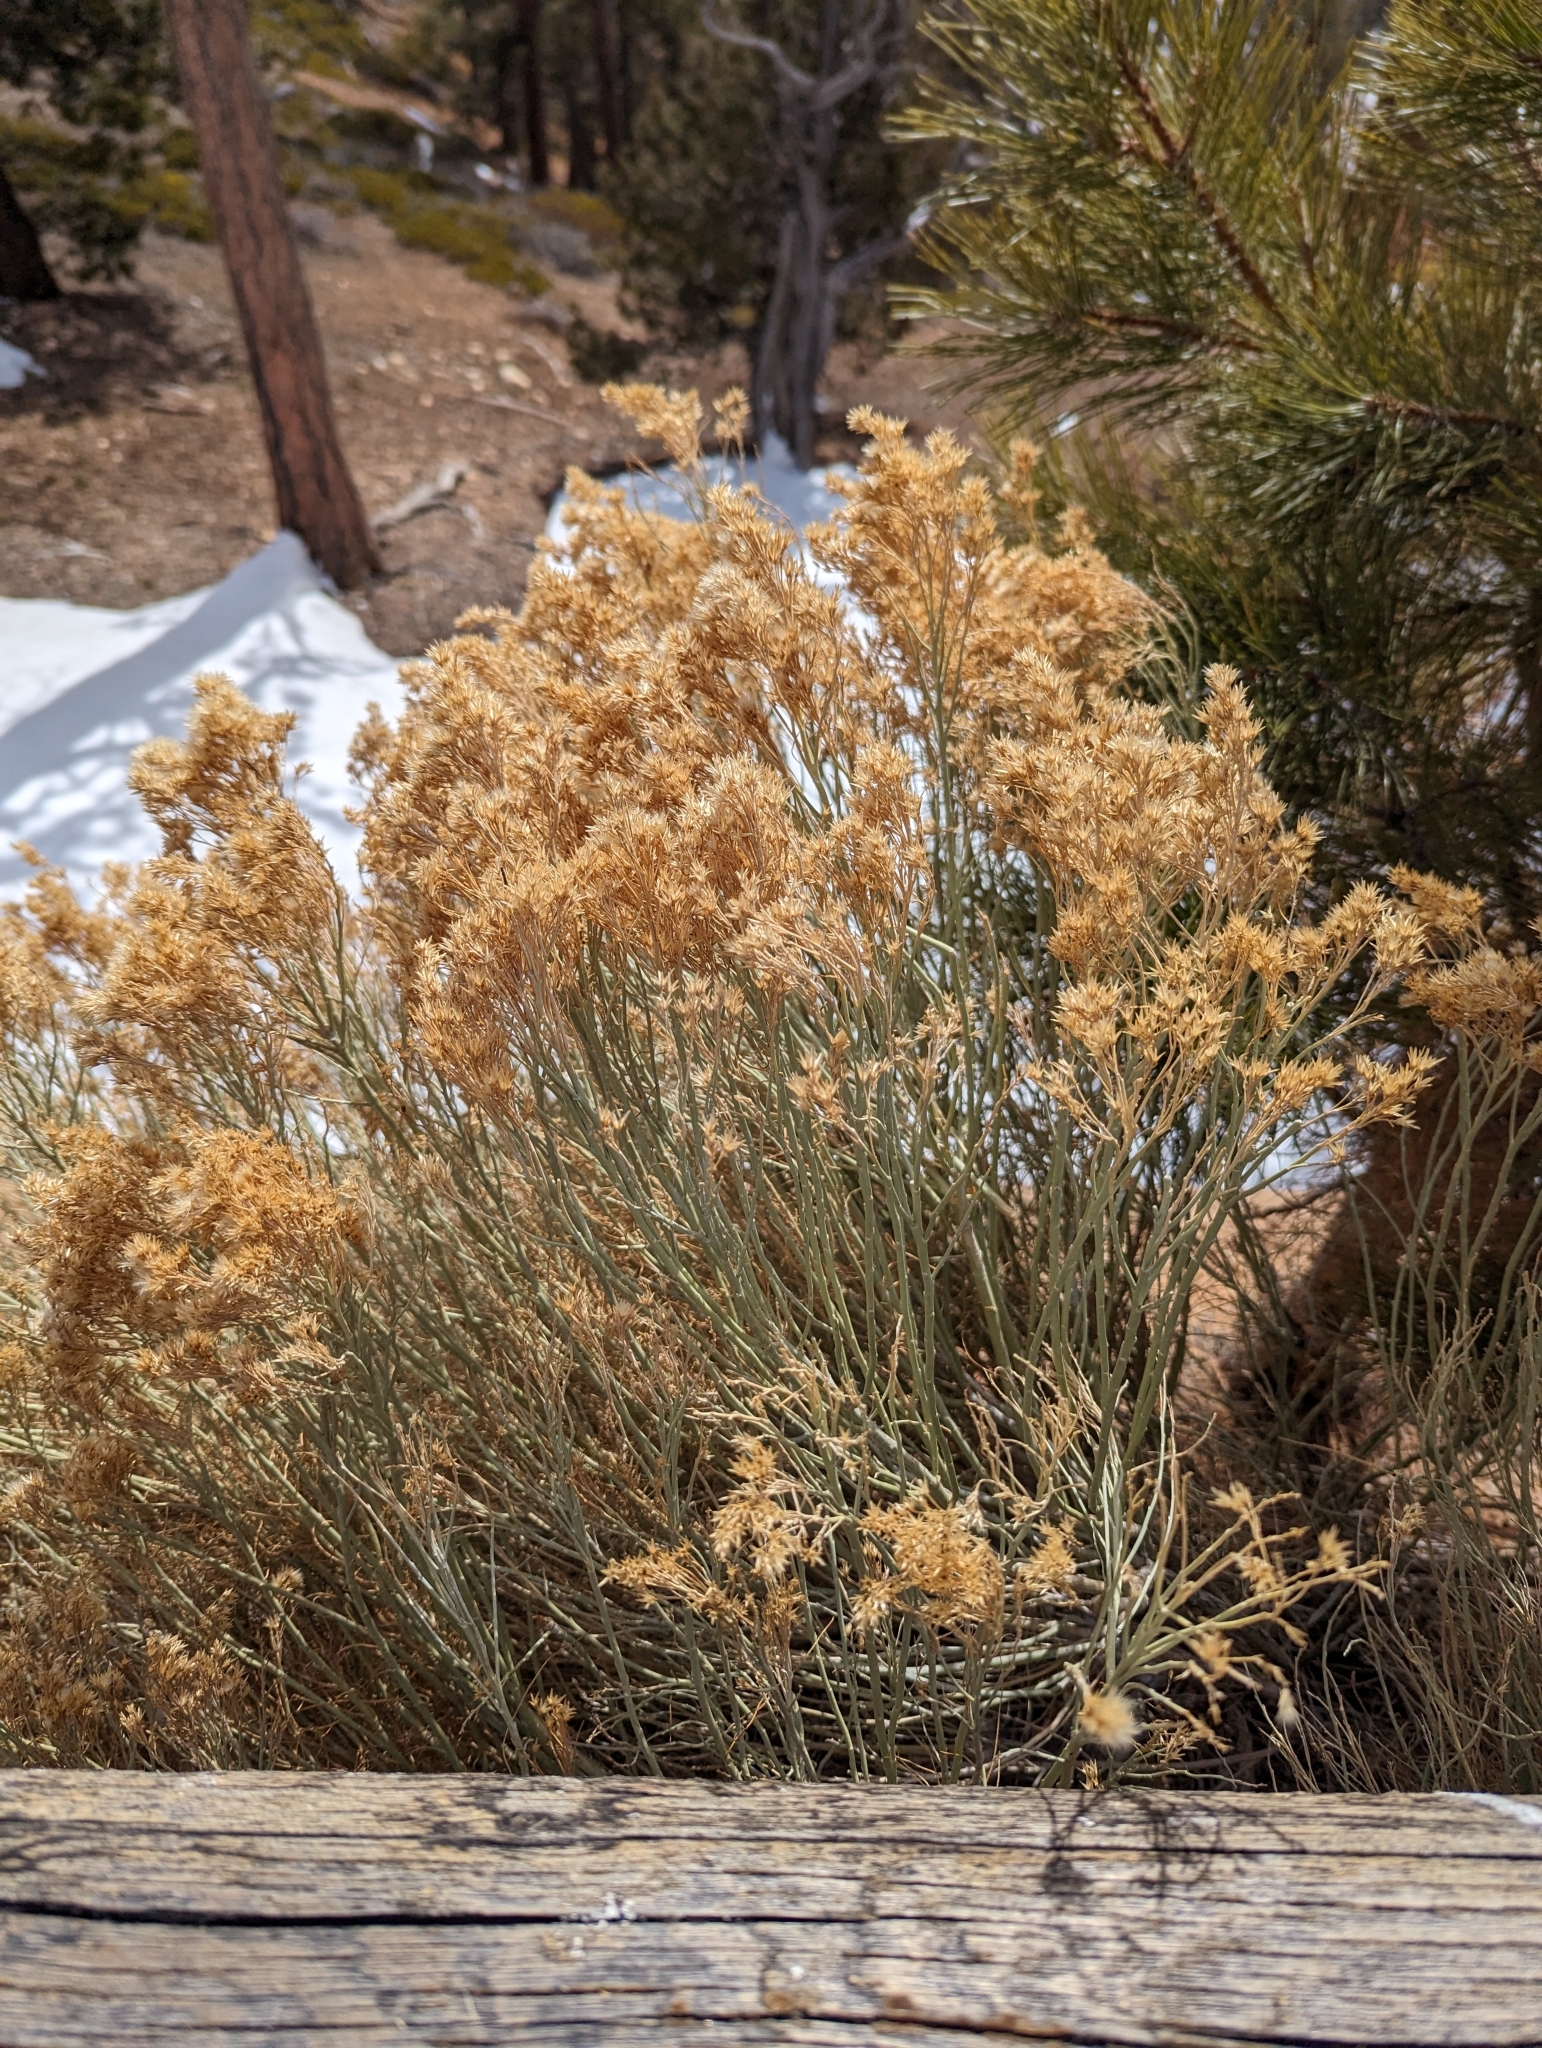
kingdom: Plantae
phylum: Tracheophyta
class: Magnoliopsida
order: Asterales
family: Asteraceae
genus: Ericameria
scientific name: Ericameria nauseosa
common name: Rubber rabbitbrush
